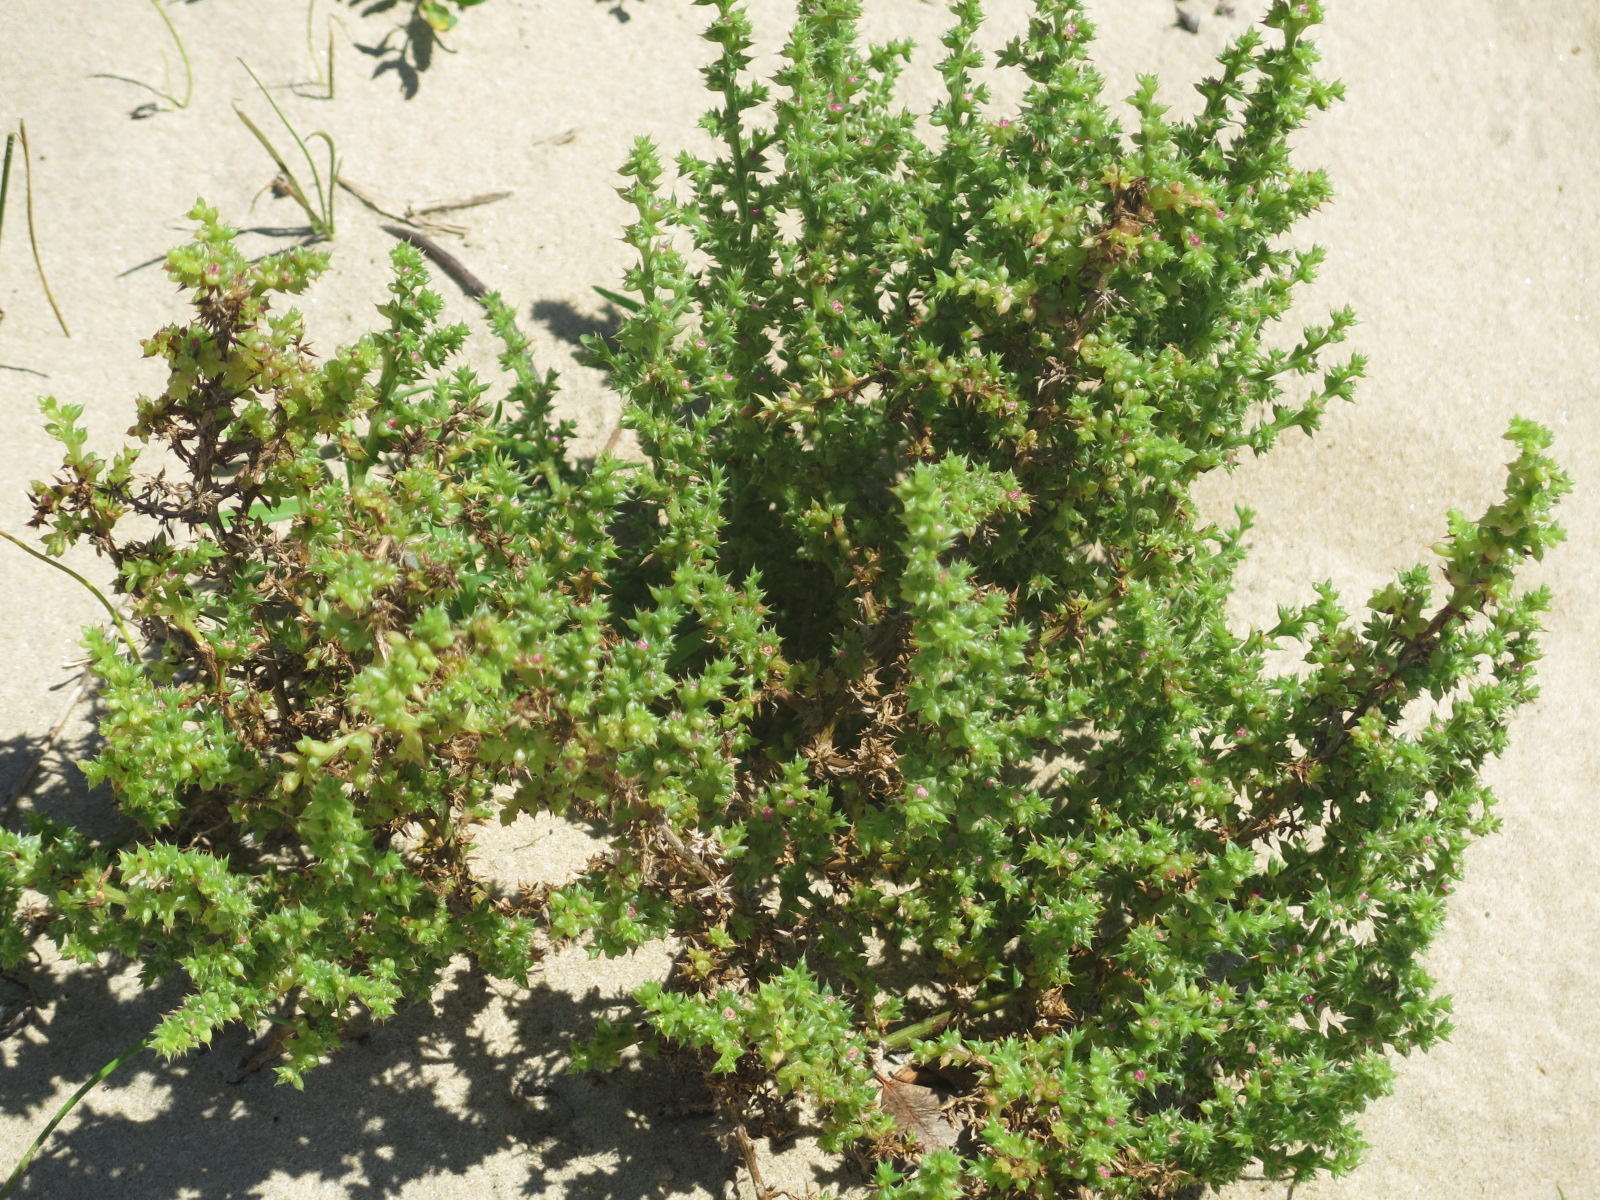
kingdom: Plantae
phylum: Tracheophyta
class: Magnoliopsida
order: Caryophyllales
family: Amaranthaceae
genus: Salsola
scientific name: Salsola kali
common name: Saltwort
